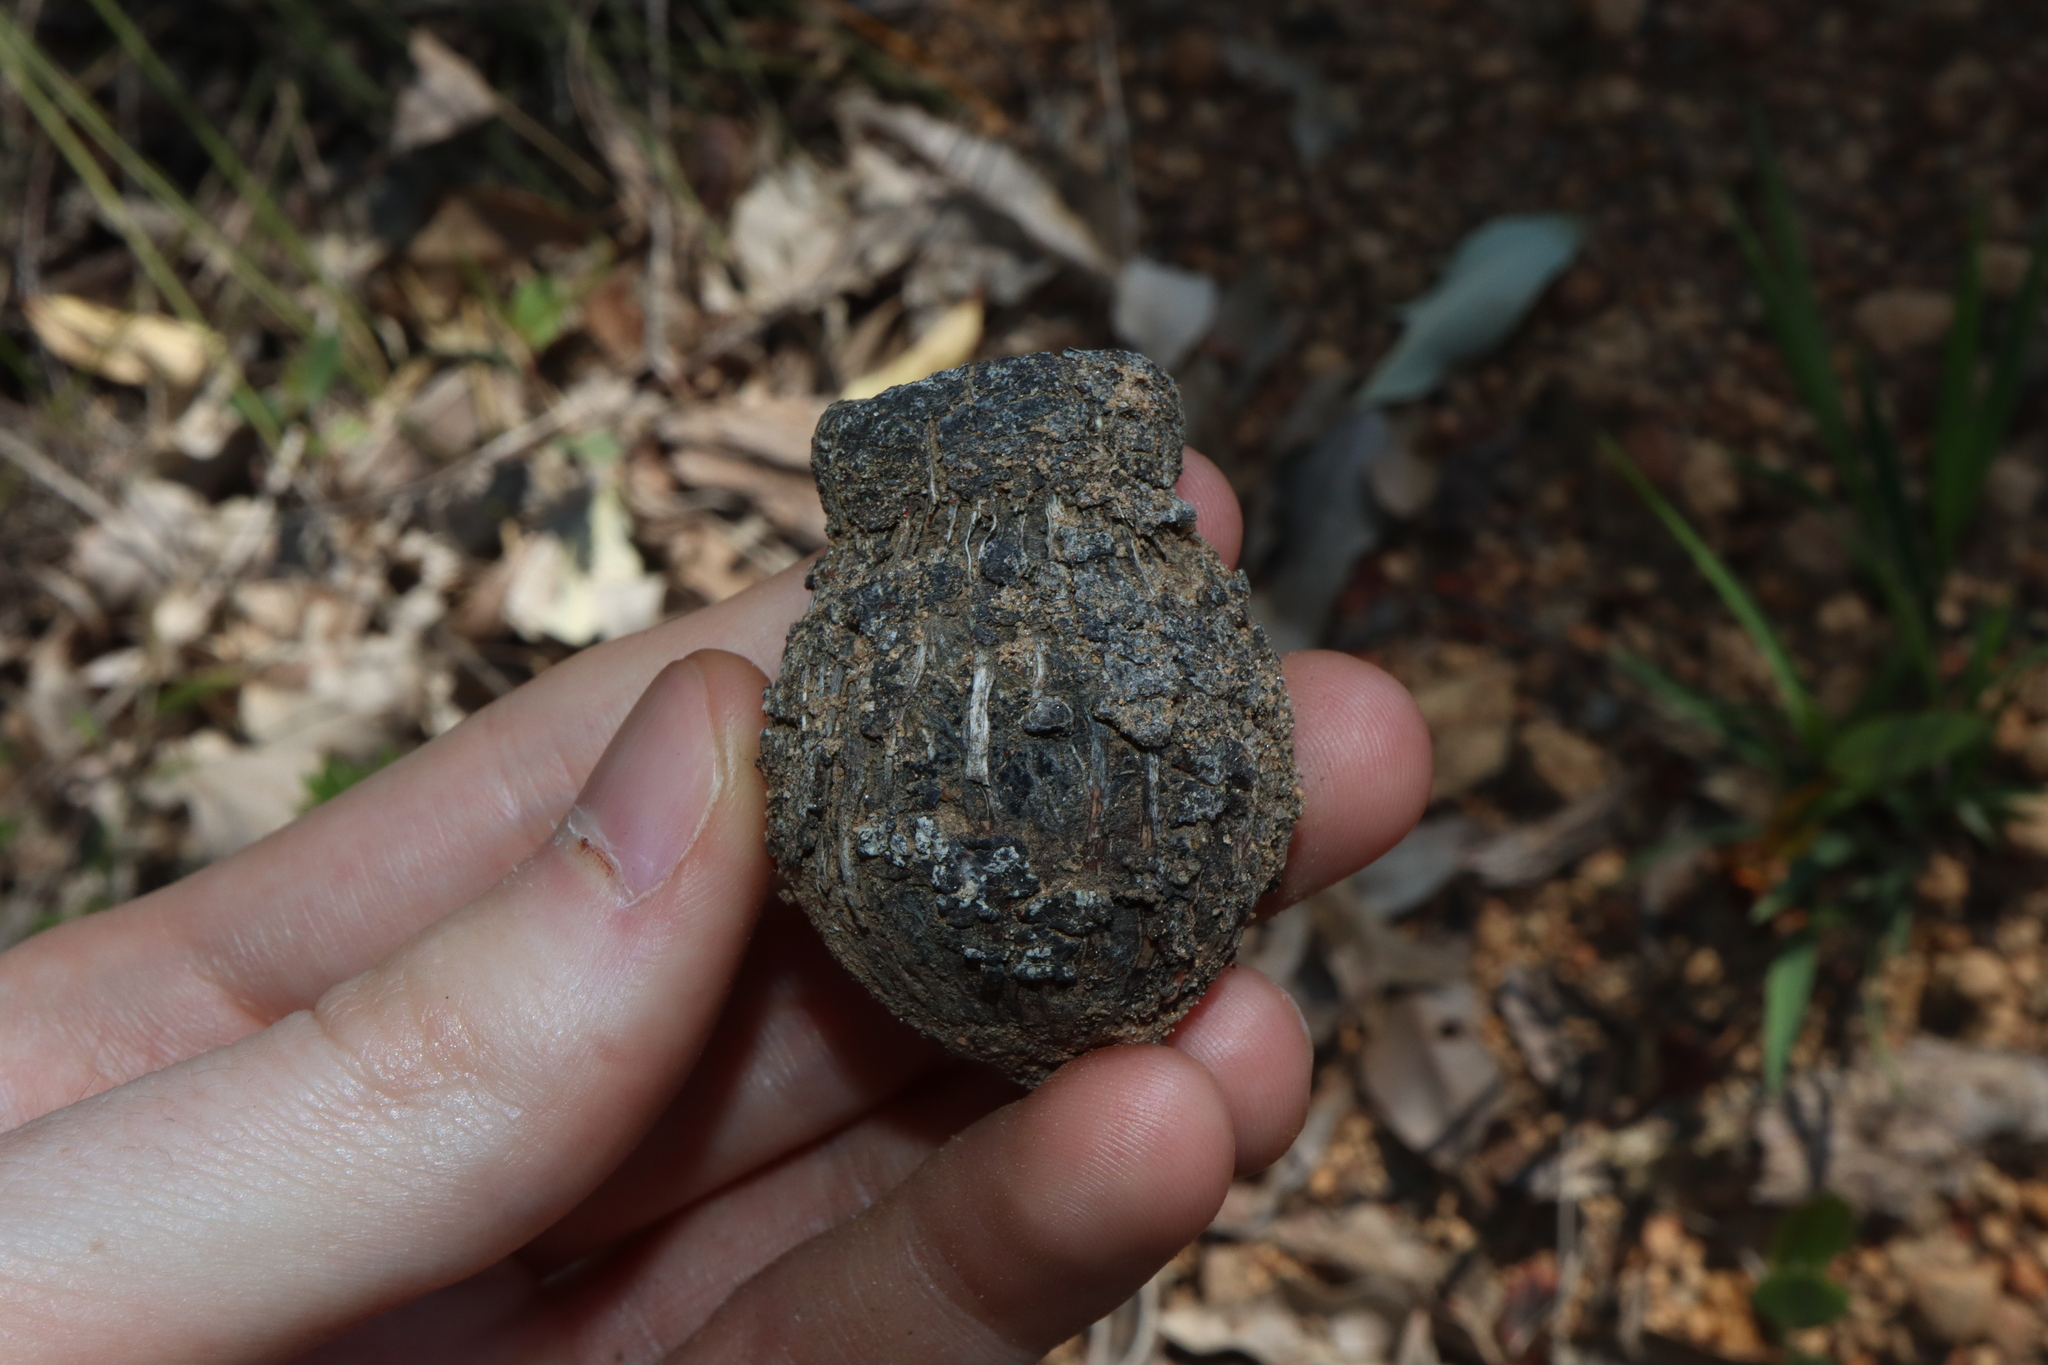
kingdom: Plantae
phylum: Tracheophyta
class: Magnoliopsida
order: Myrtales
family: Myrtaceae
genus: Corymbia
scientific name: Corymbia calophylla
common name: Marri
